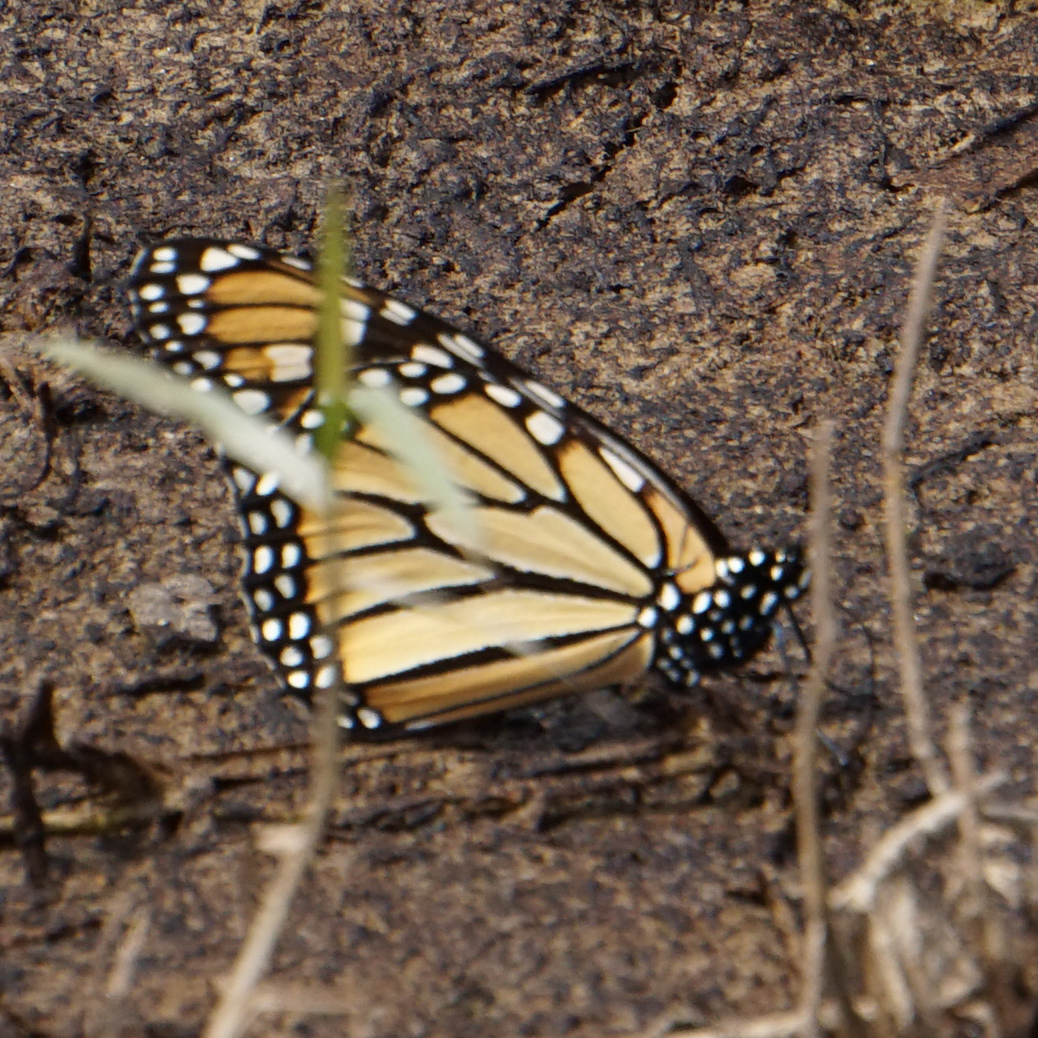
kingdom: Animalia
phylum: Arthropoda
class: Insecta
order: Lepidoptera
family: Nymphalidae
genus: Danaus
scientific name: Danaus plexippus
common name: Monarch
